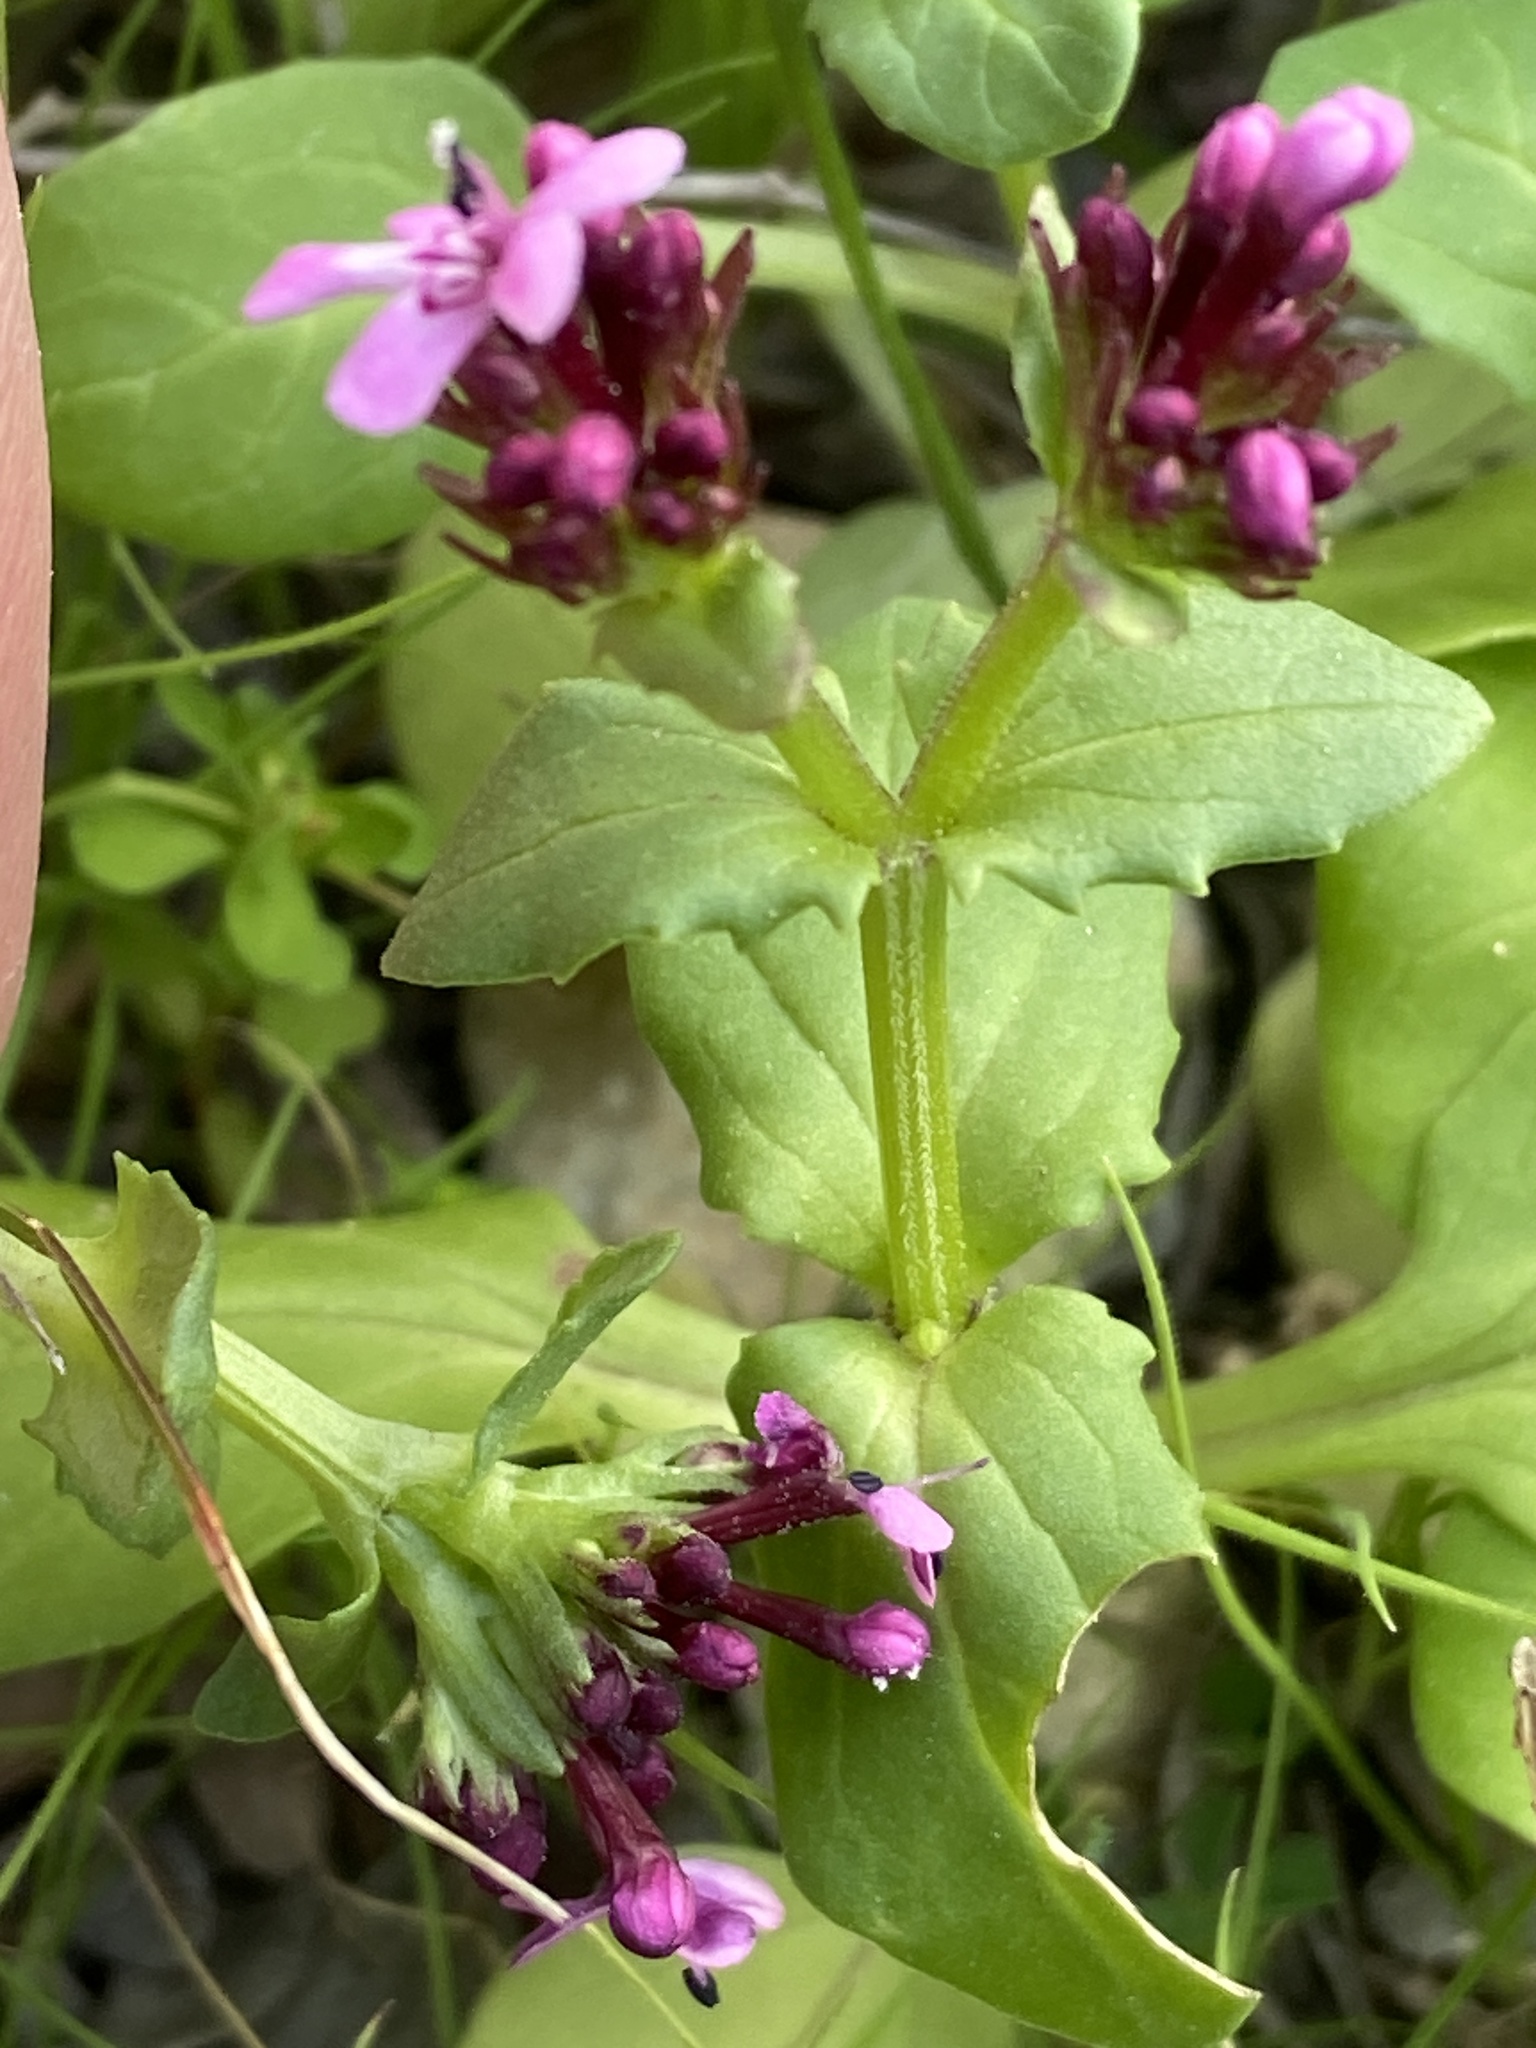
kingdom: Plantae
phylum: Tracheophyta
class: Magnoliopsida
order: Dipsacales
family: Caprifoliaceae
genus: Fedia
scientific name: Fedia graciliflora
